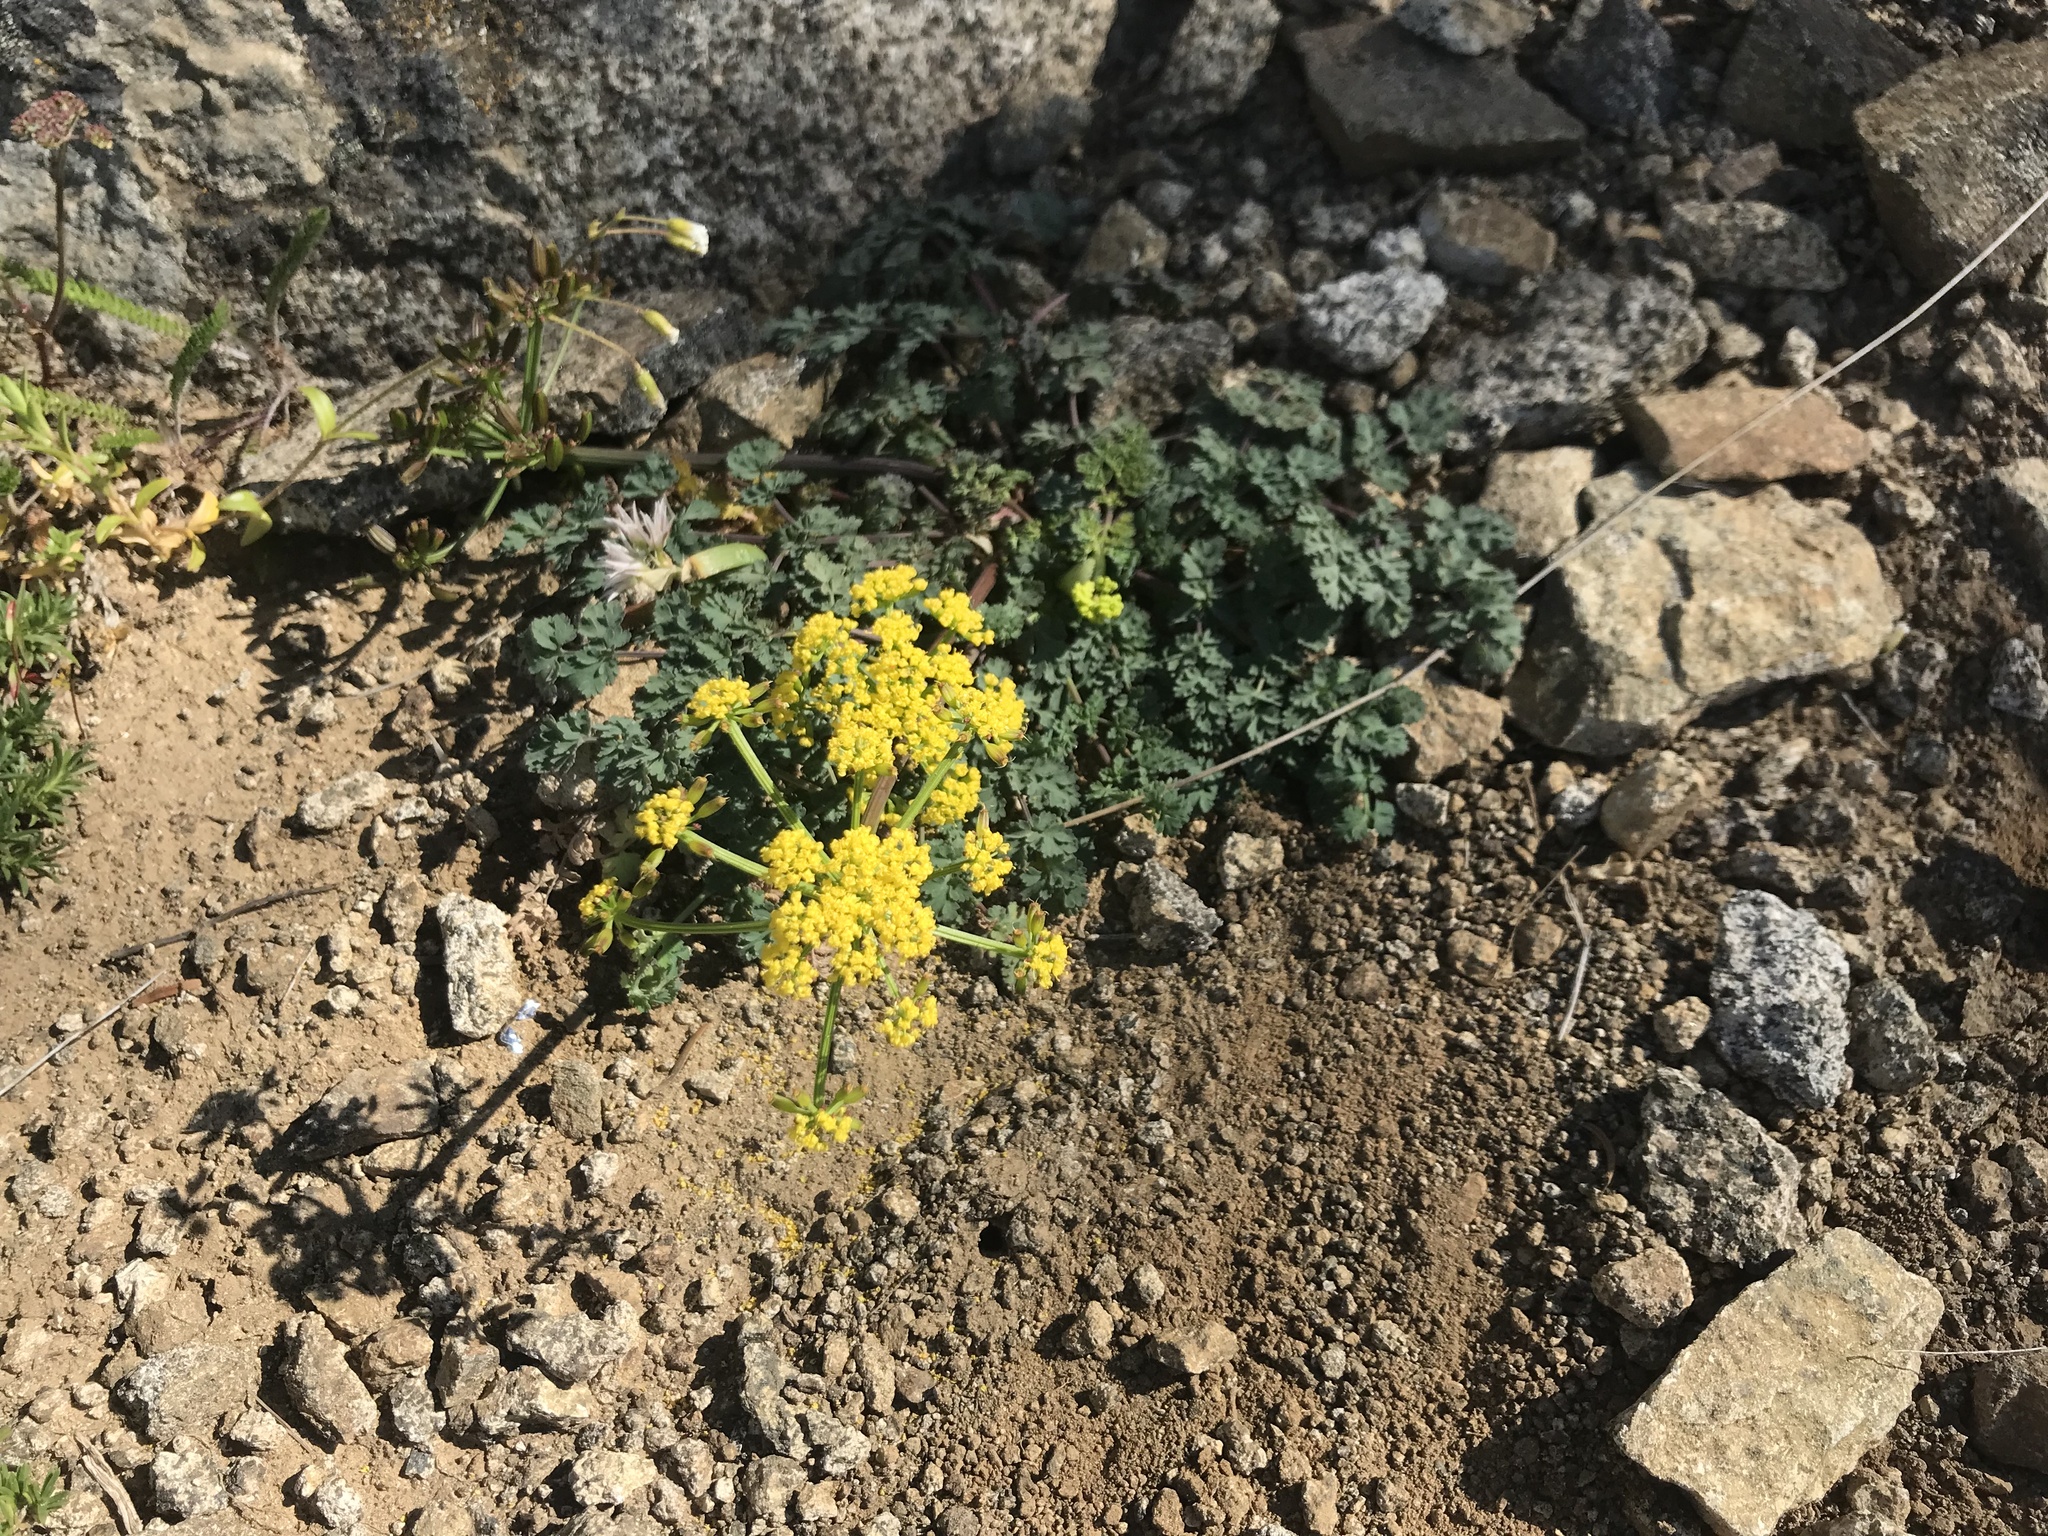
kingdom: Plantae
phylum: Tracheophyta
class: Magnoliopsida
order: Apiales
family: Apiaceae
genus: Lomatium
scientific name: Lomatium martindalei
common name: Cascade desert-parsley
